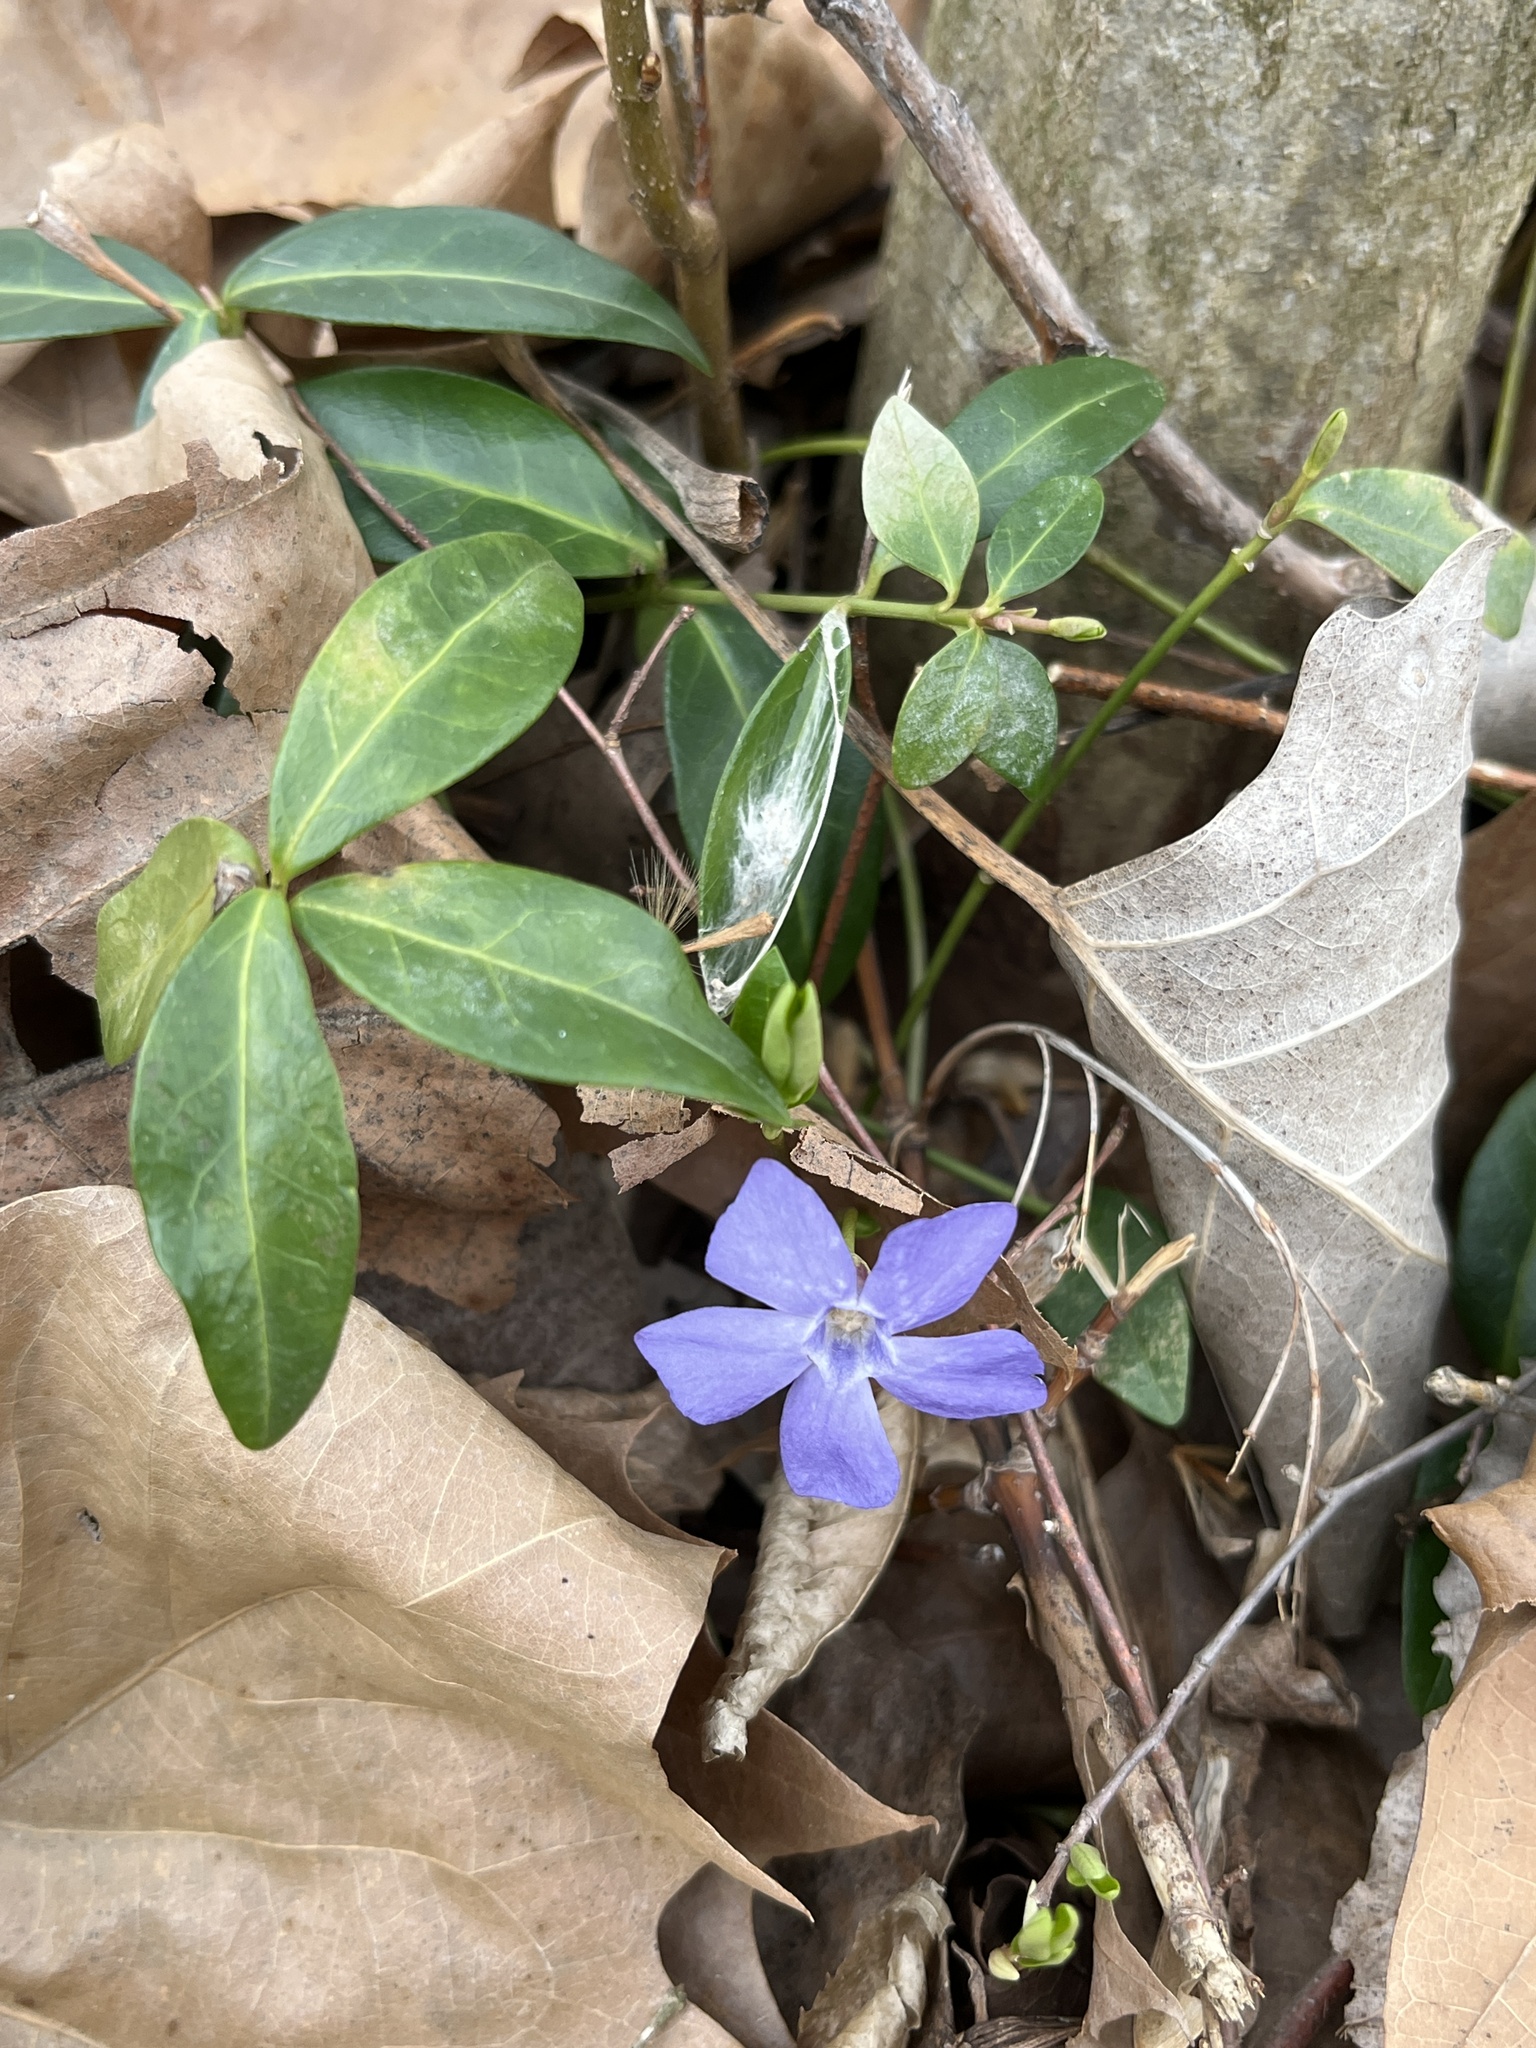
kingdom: Plantae
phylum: Tracheophyta
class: Magnoliopsida
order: Gentianales
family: Apocynaceae
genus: Vinca
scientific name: Vinca minor
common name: Lesser periwinkle
